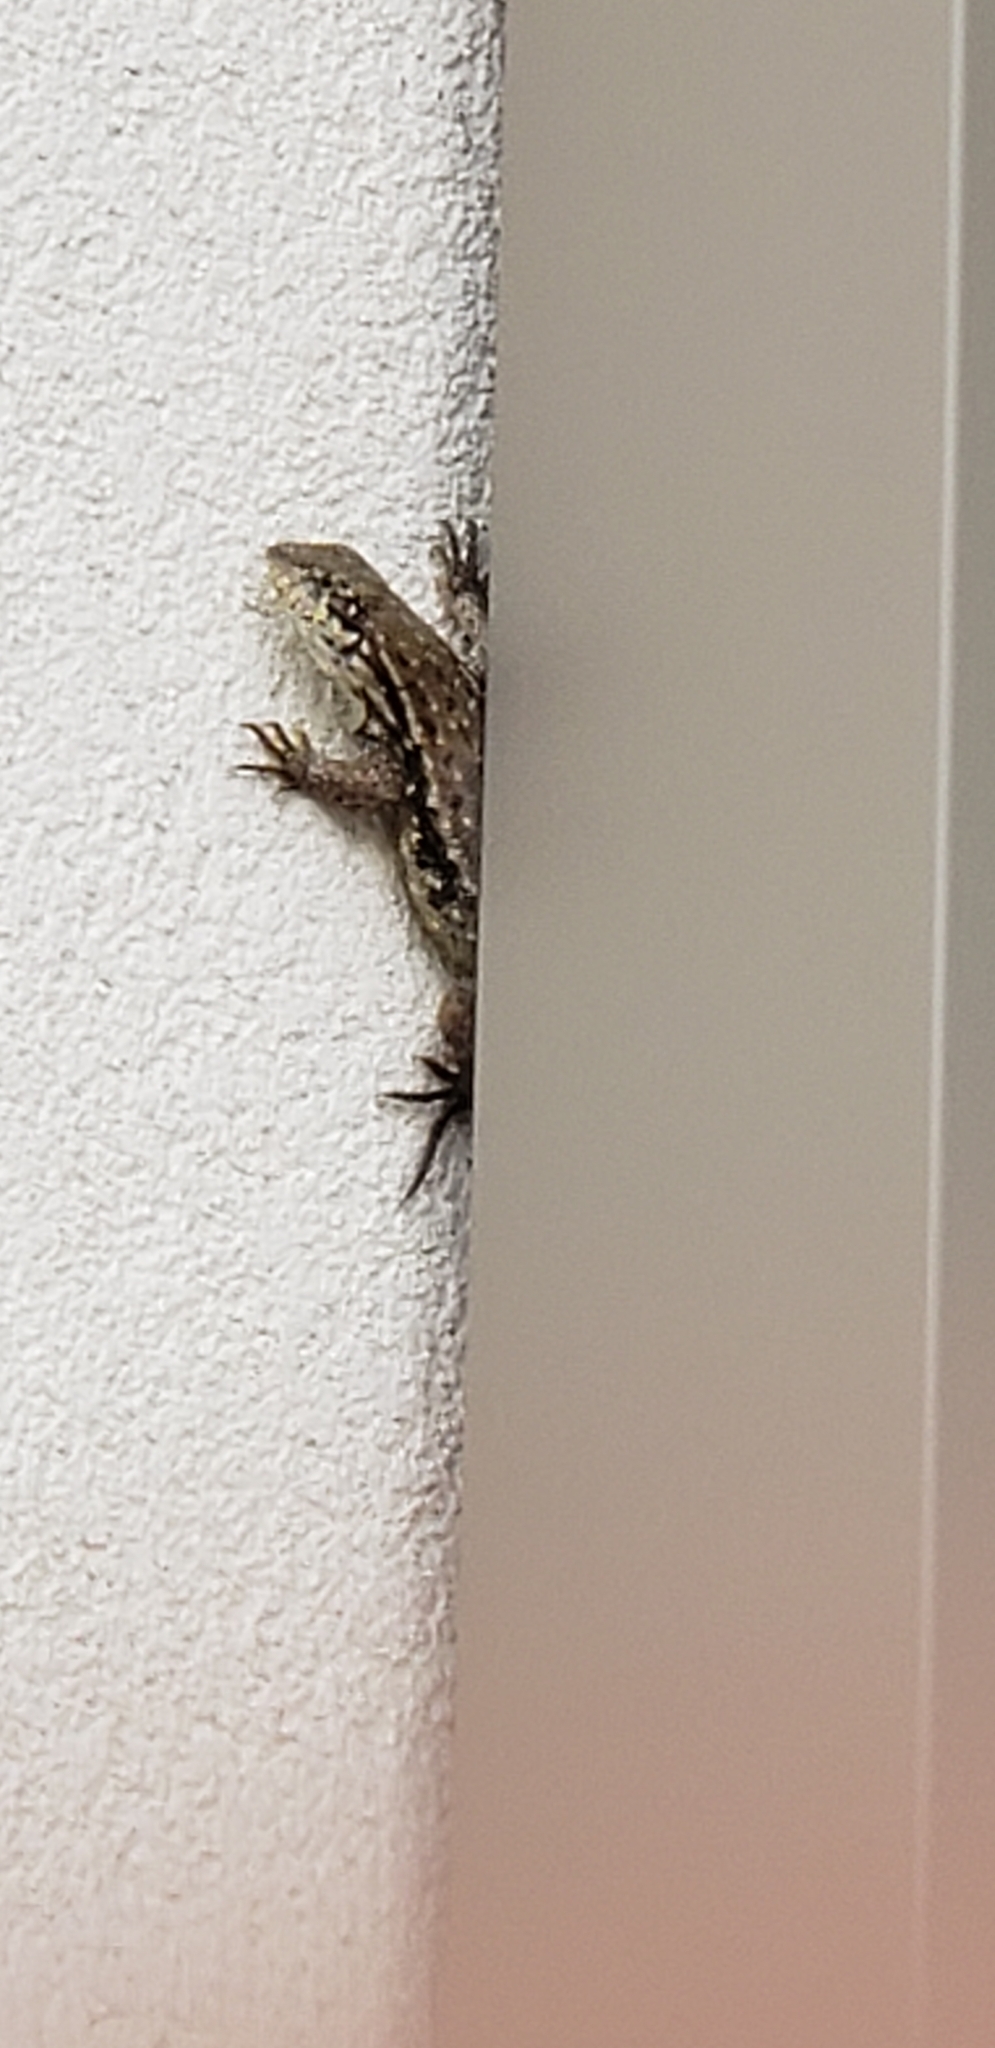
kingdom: Animalia
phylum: Chordata
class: Squamata
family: Leiocephalidae
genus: Leiocephalus
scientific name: Leiocephalus carinatus
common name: Northern curly-tailed lizard
